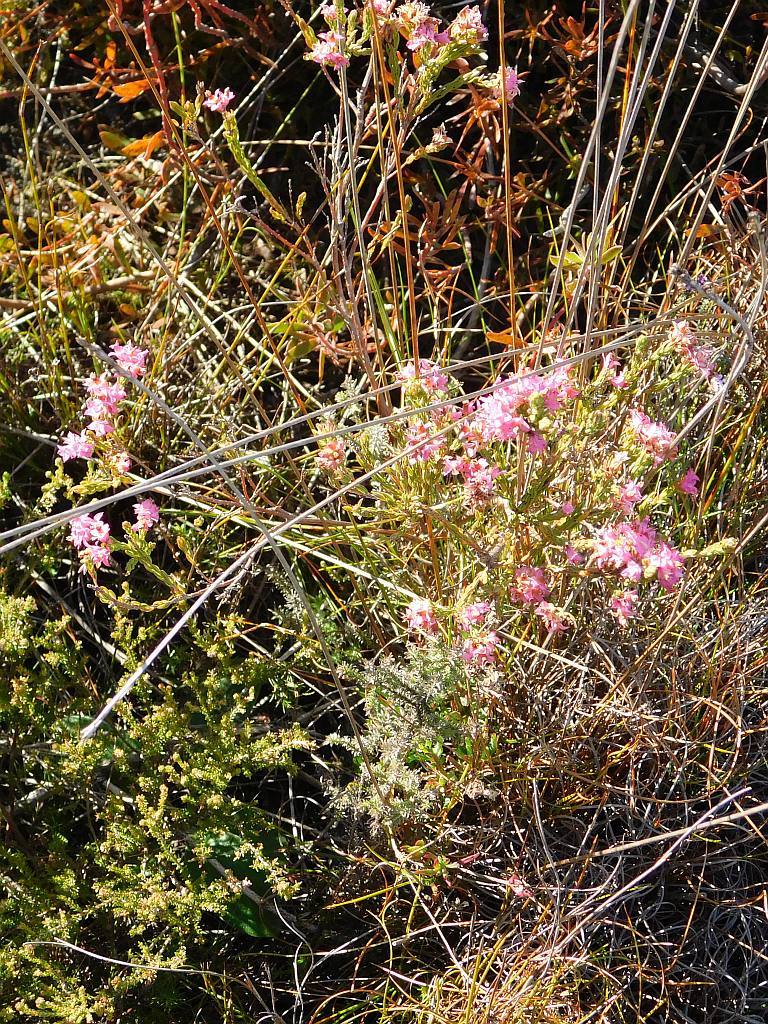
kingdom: Plantae
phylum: Tracheophyta
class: Magnoliopsida
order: Ericales
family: Ericaceae
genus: Erica
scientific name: Erica corifolia
